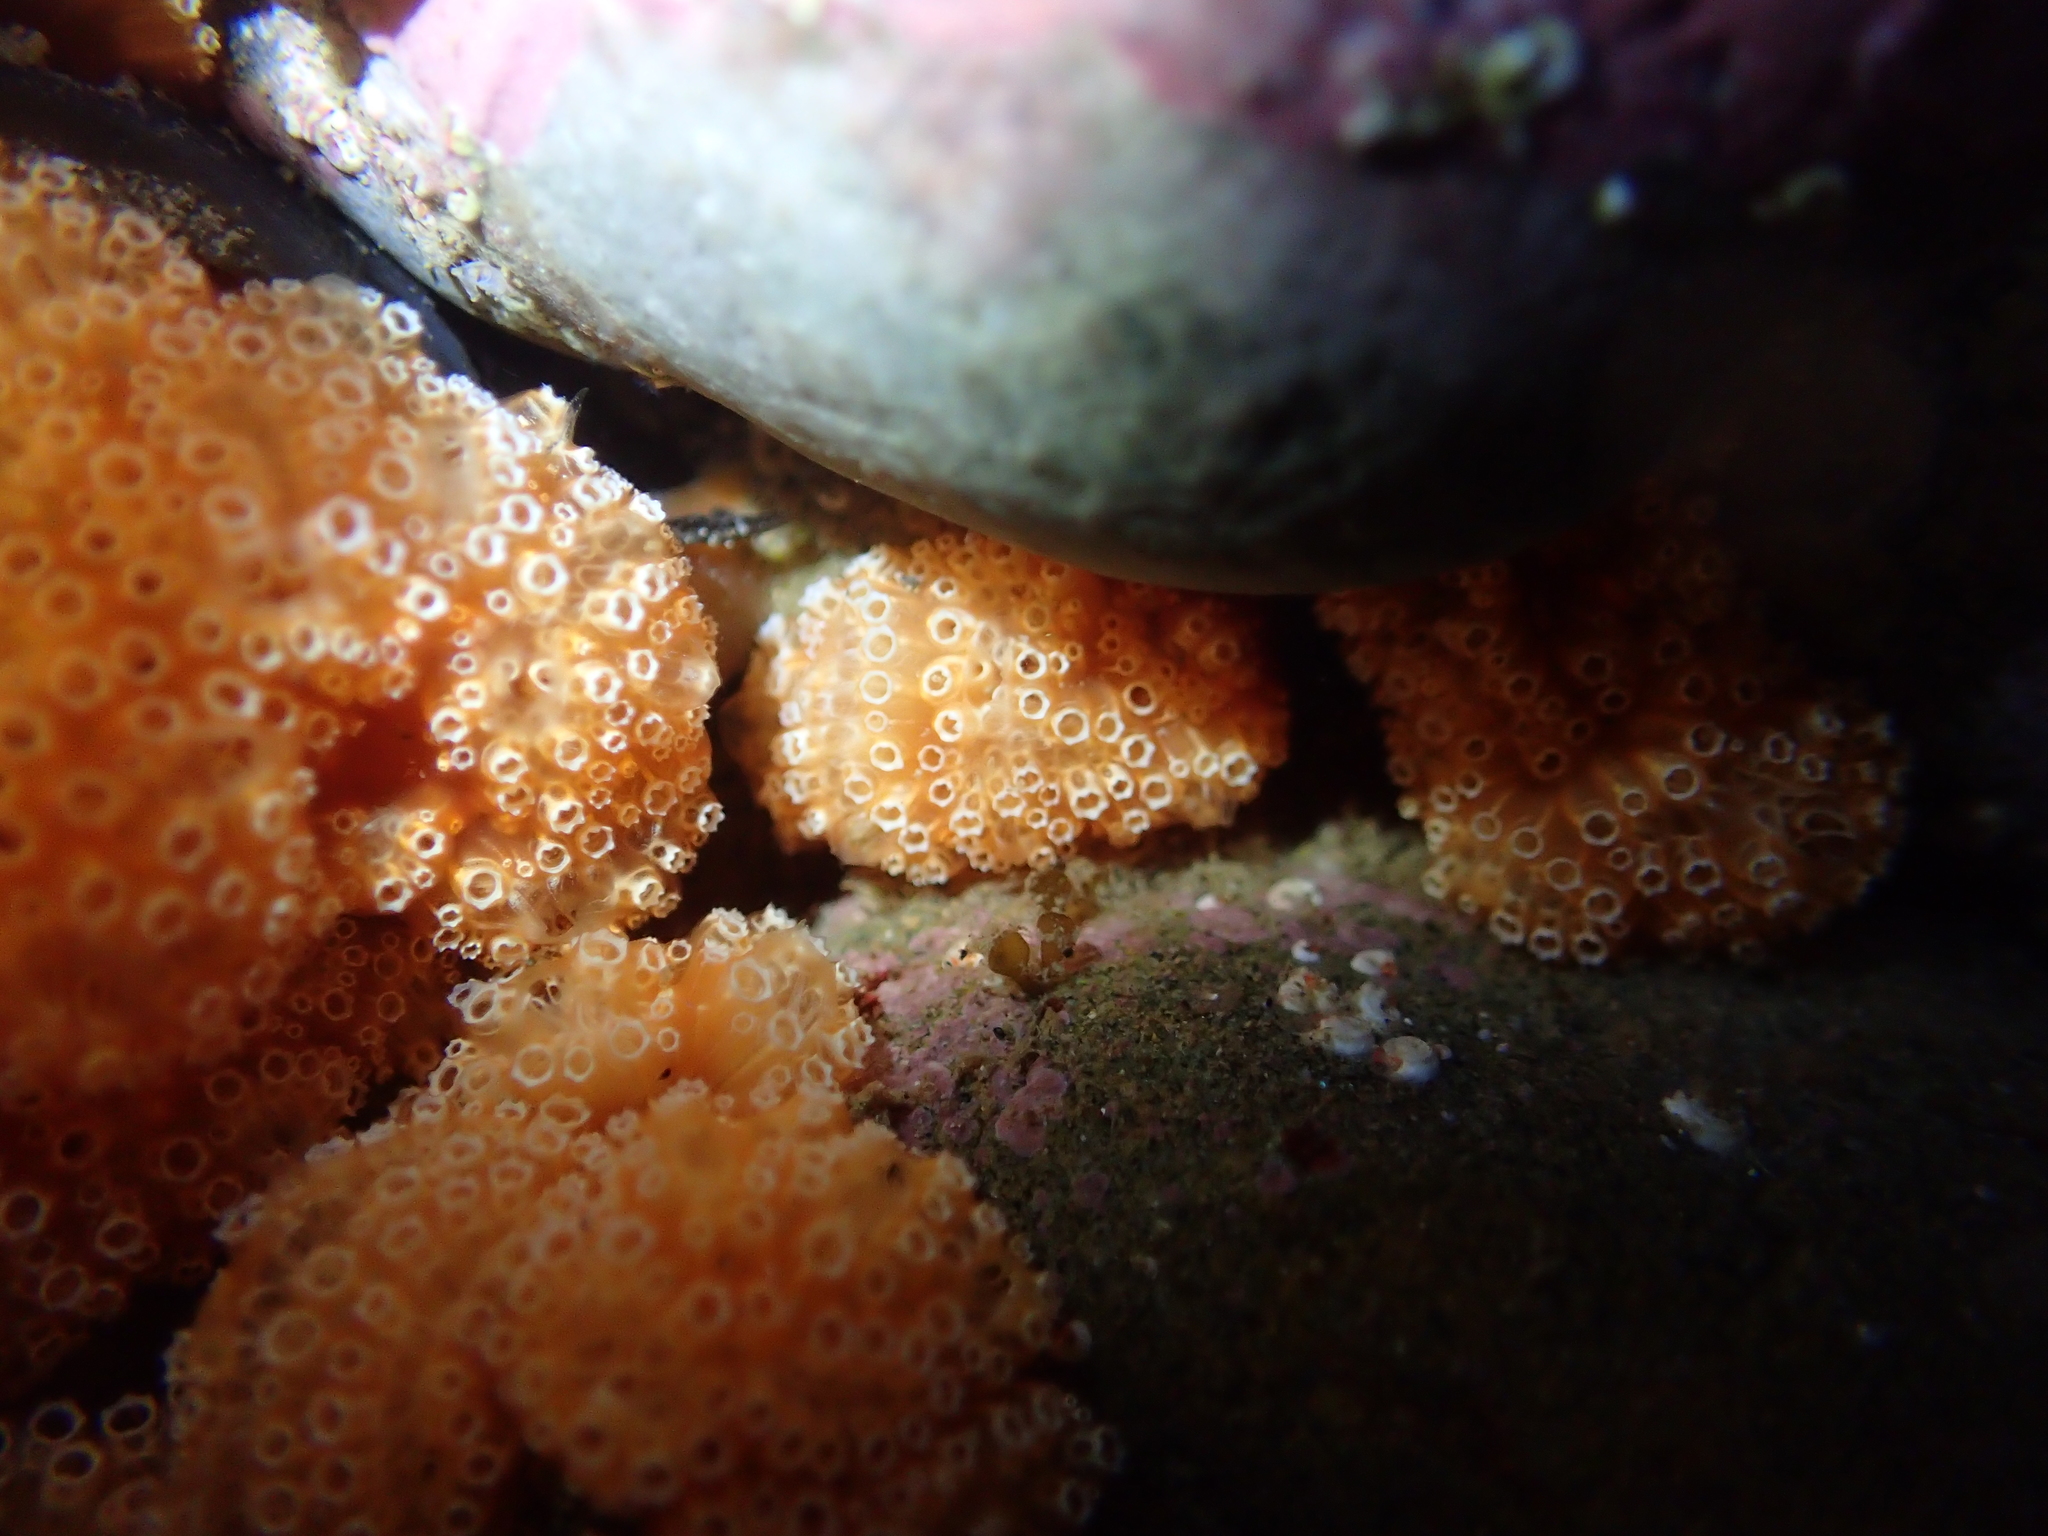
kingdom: Animalia
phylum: Chordata
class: Ascidiacea
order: Aplousobranchia
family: Polyclinidae
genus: Aplidium
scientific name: Aplidium benhami
